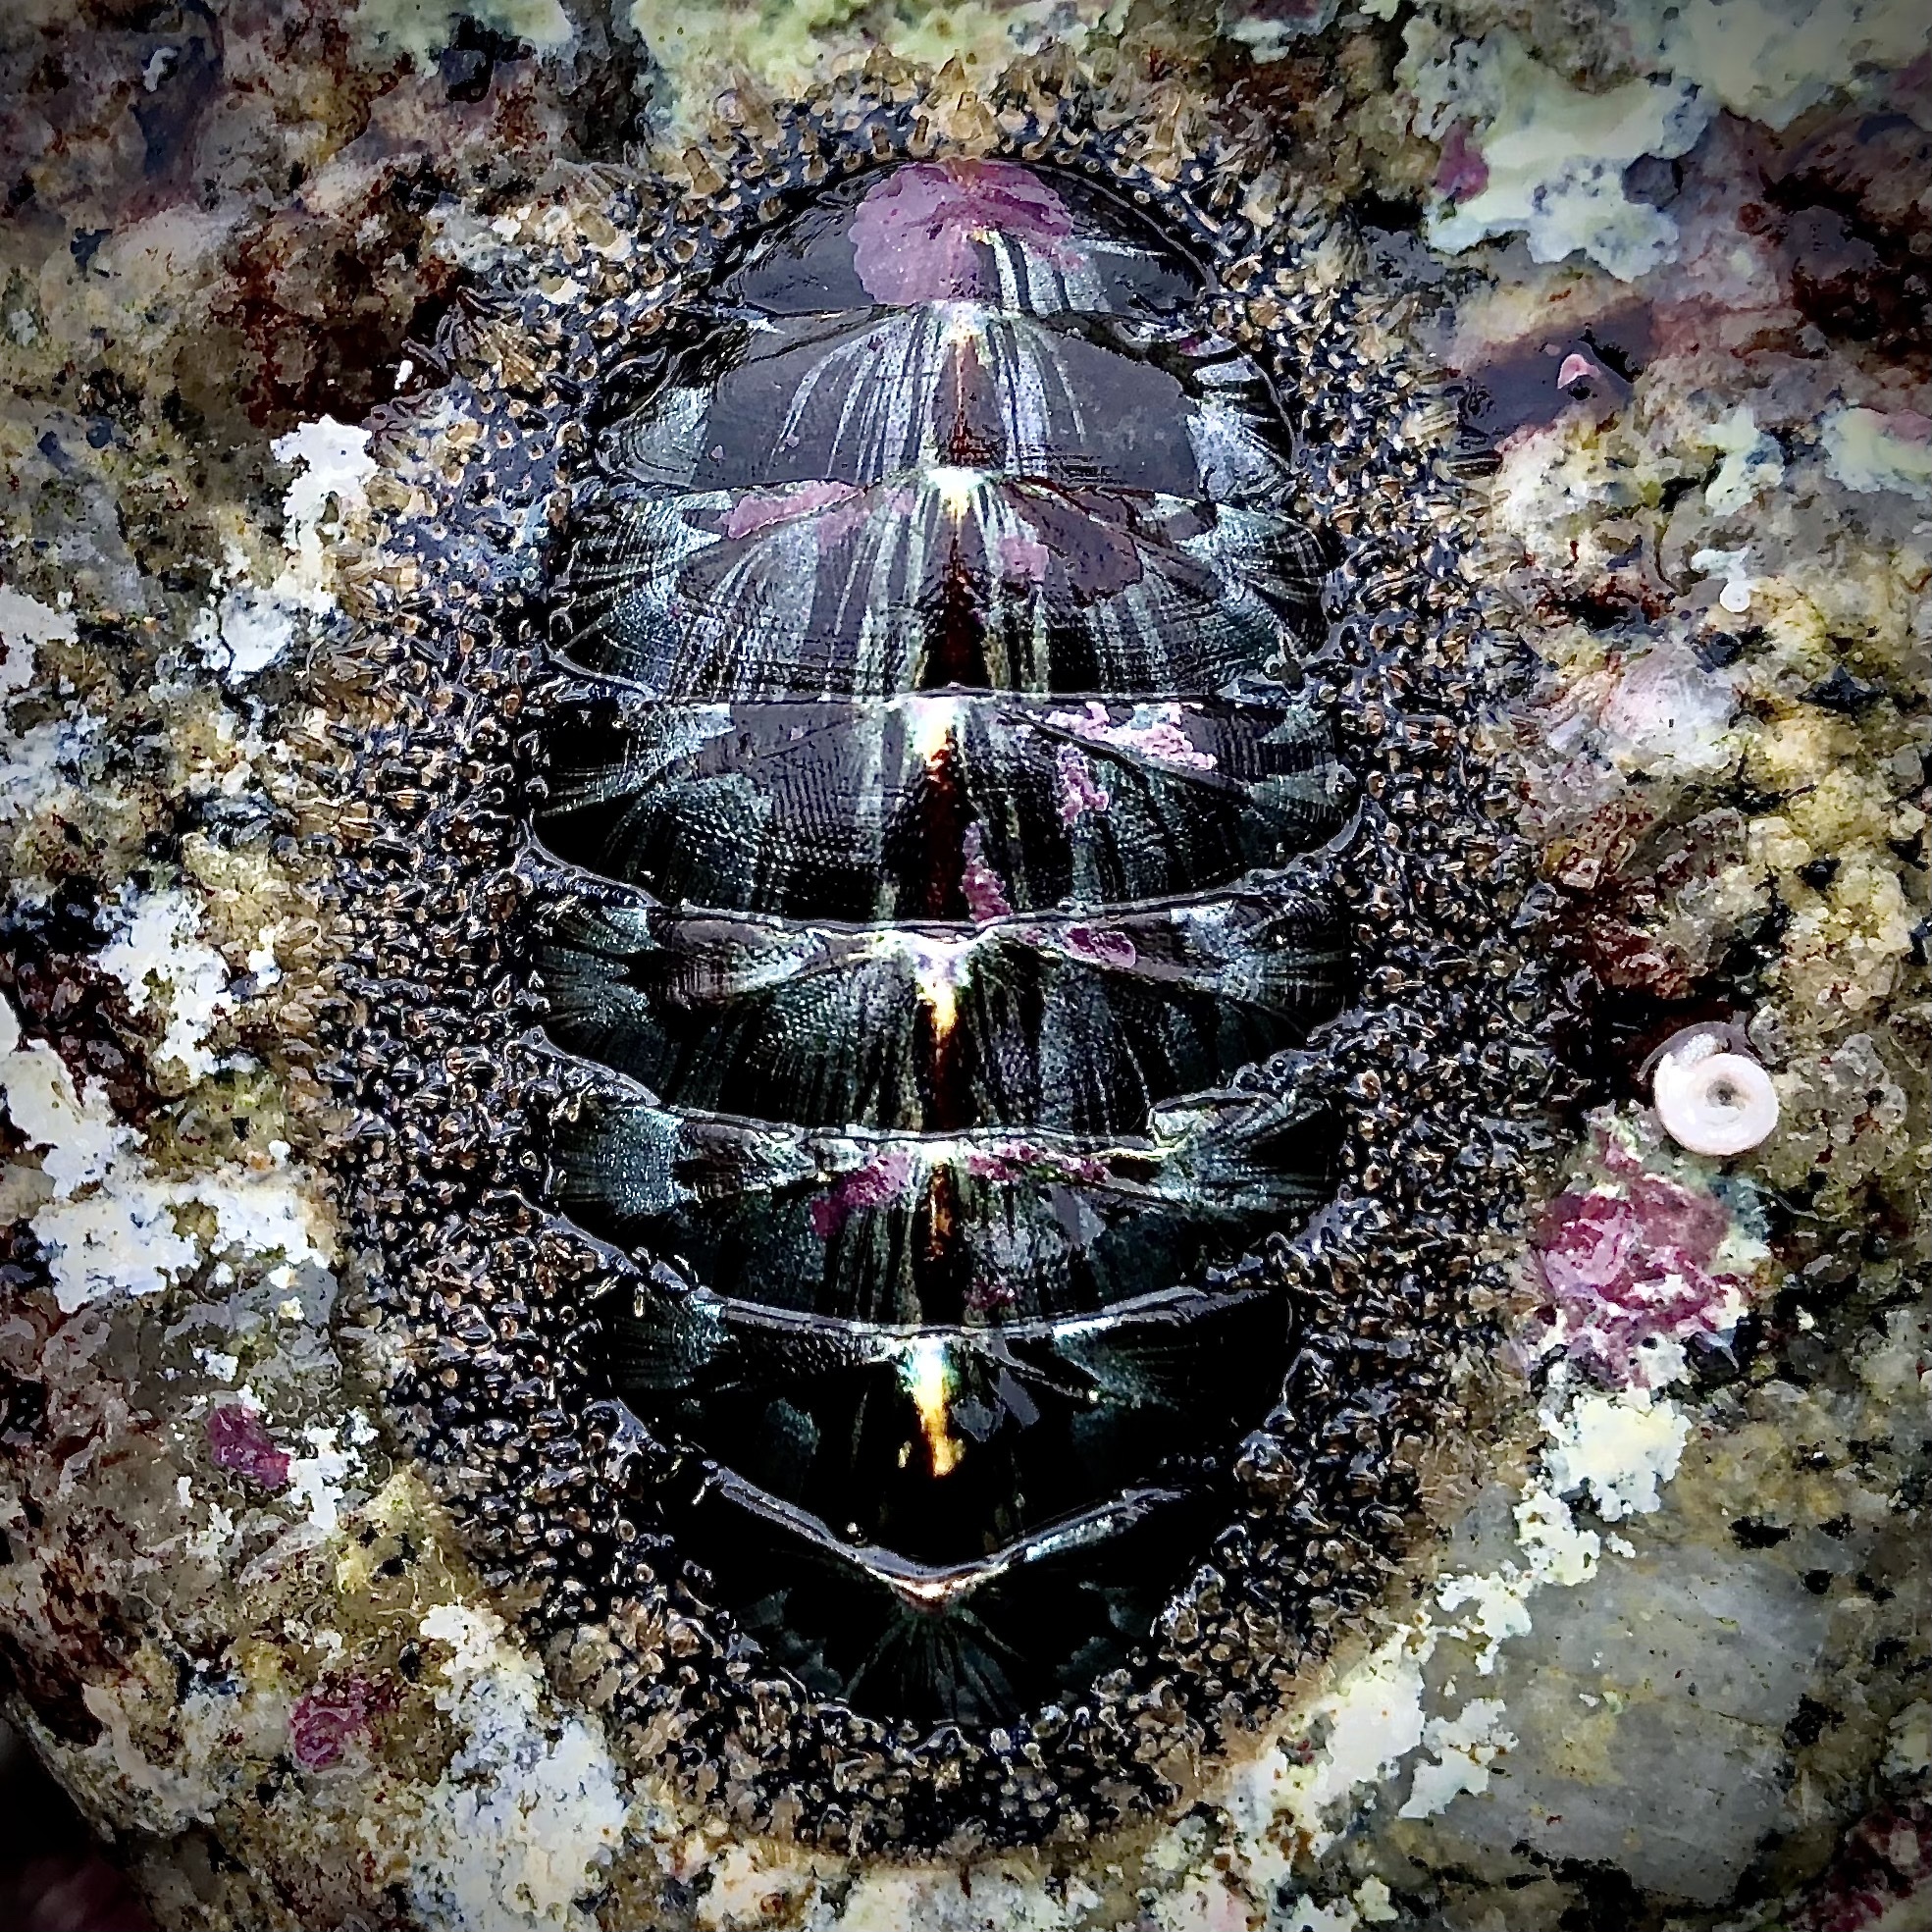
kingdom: Animalia
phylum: Mollusca
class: Polyplacophora
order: Chitonida
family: Mopaliidae
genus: Mopalia
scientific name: Mopalia muscosa
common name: Mossy chiton
